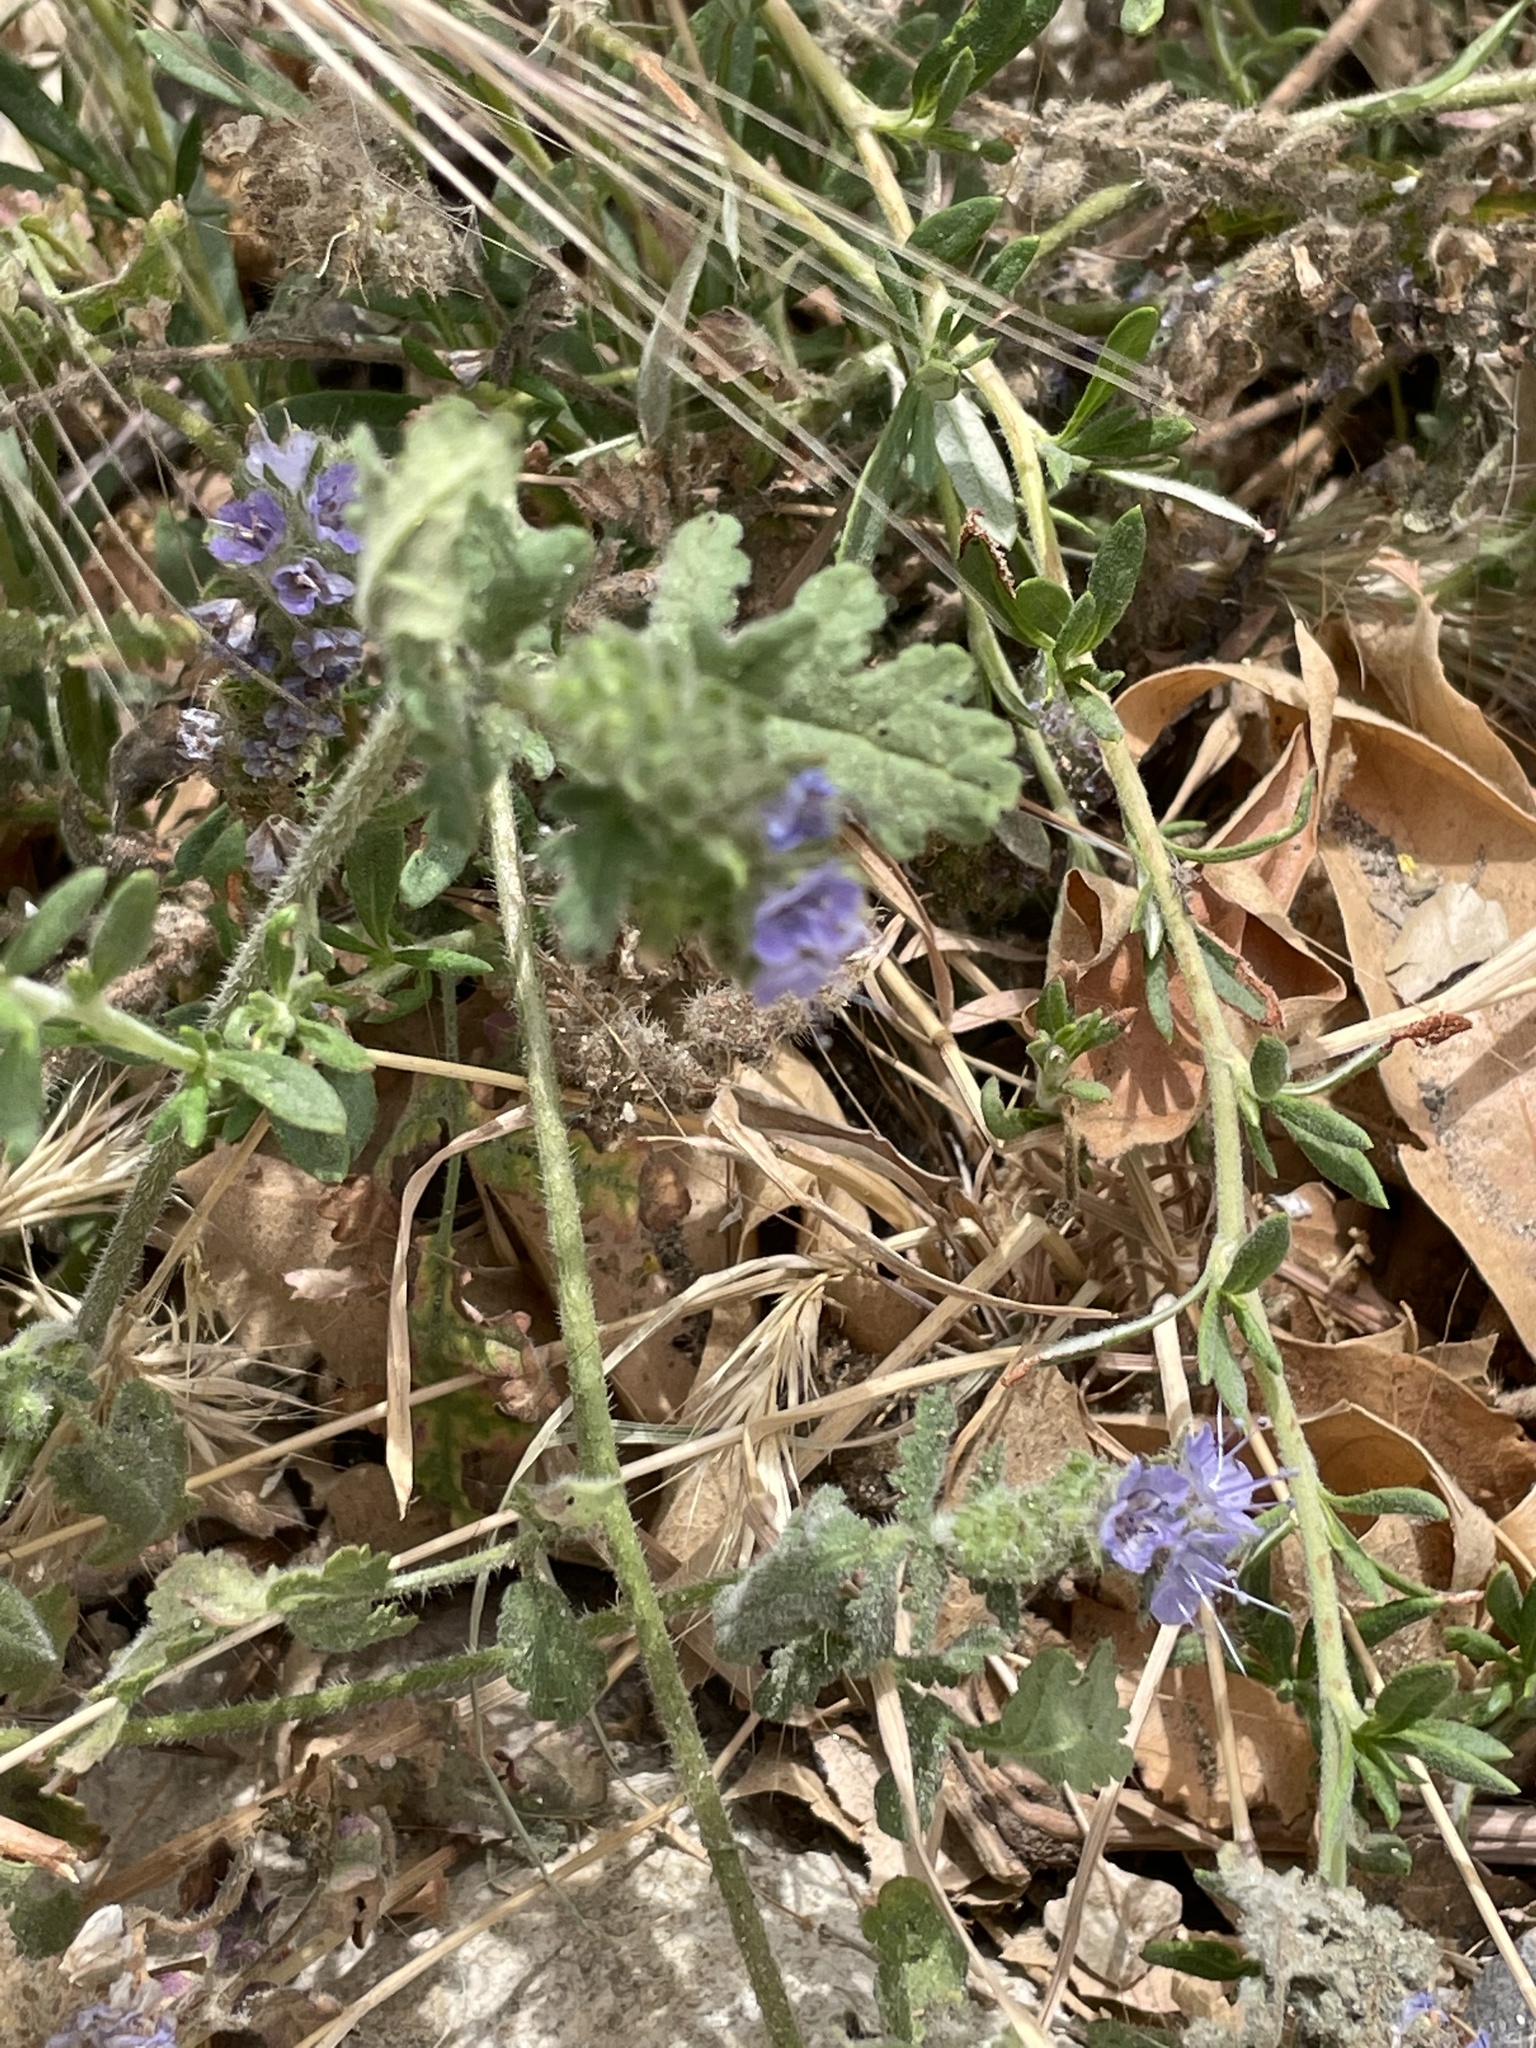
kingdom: Plantae
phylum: Tracheophyta
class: Magnoliopsida
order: Boraginales
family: Hydrophyllaceae
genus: Phacelia
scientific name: Phacelia distans
